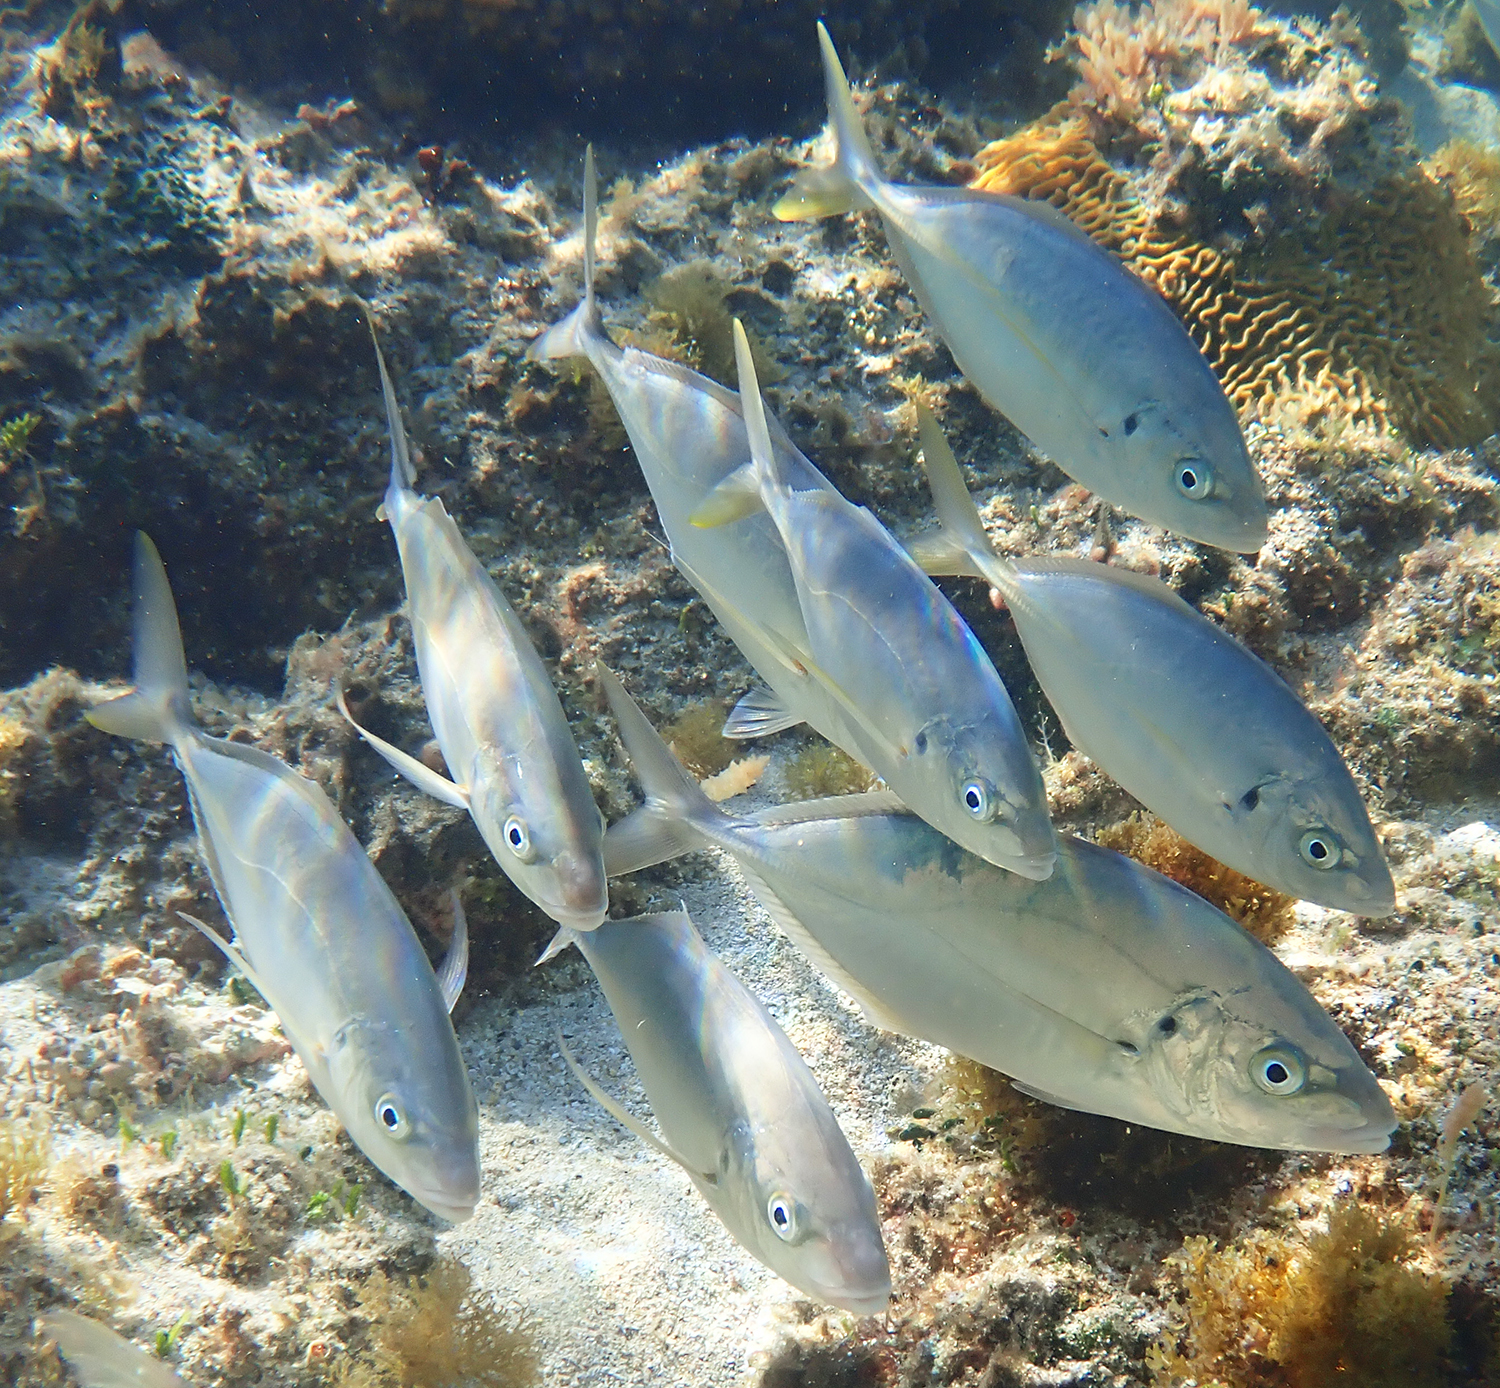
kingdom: Animalia
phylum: Chordata
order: Perciformes
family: Carangidae
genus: Pseudocaranx
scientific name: Pseudocaranx dentex
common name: White trevally
